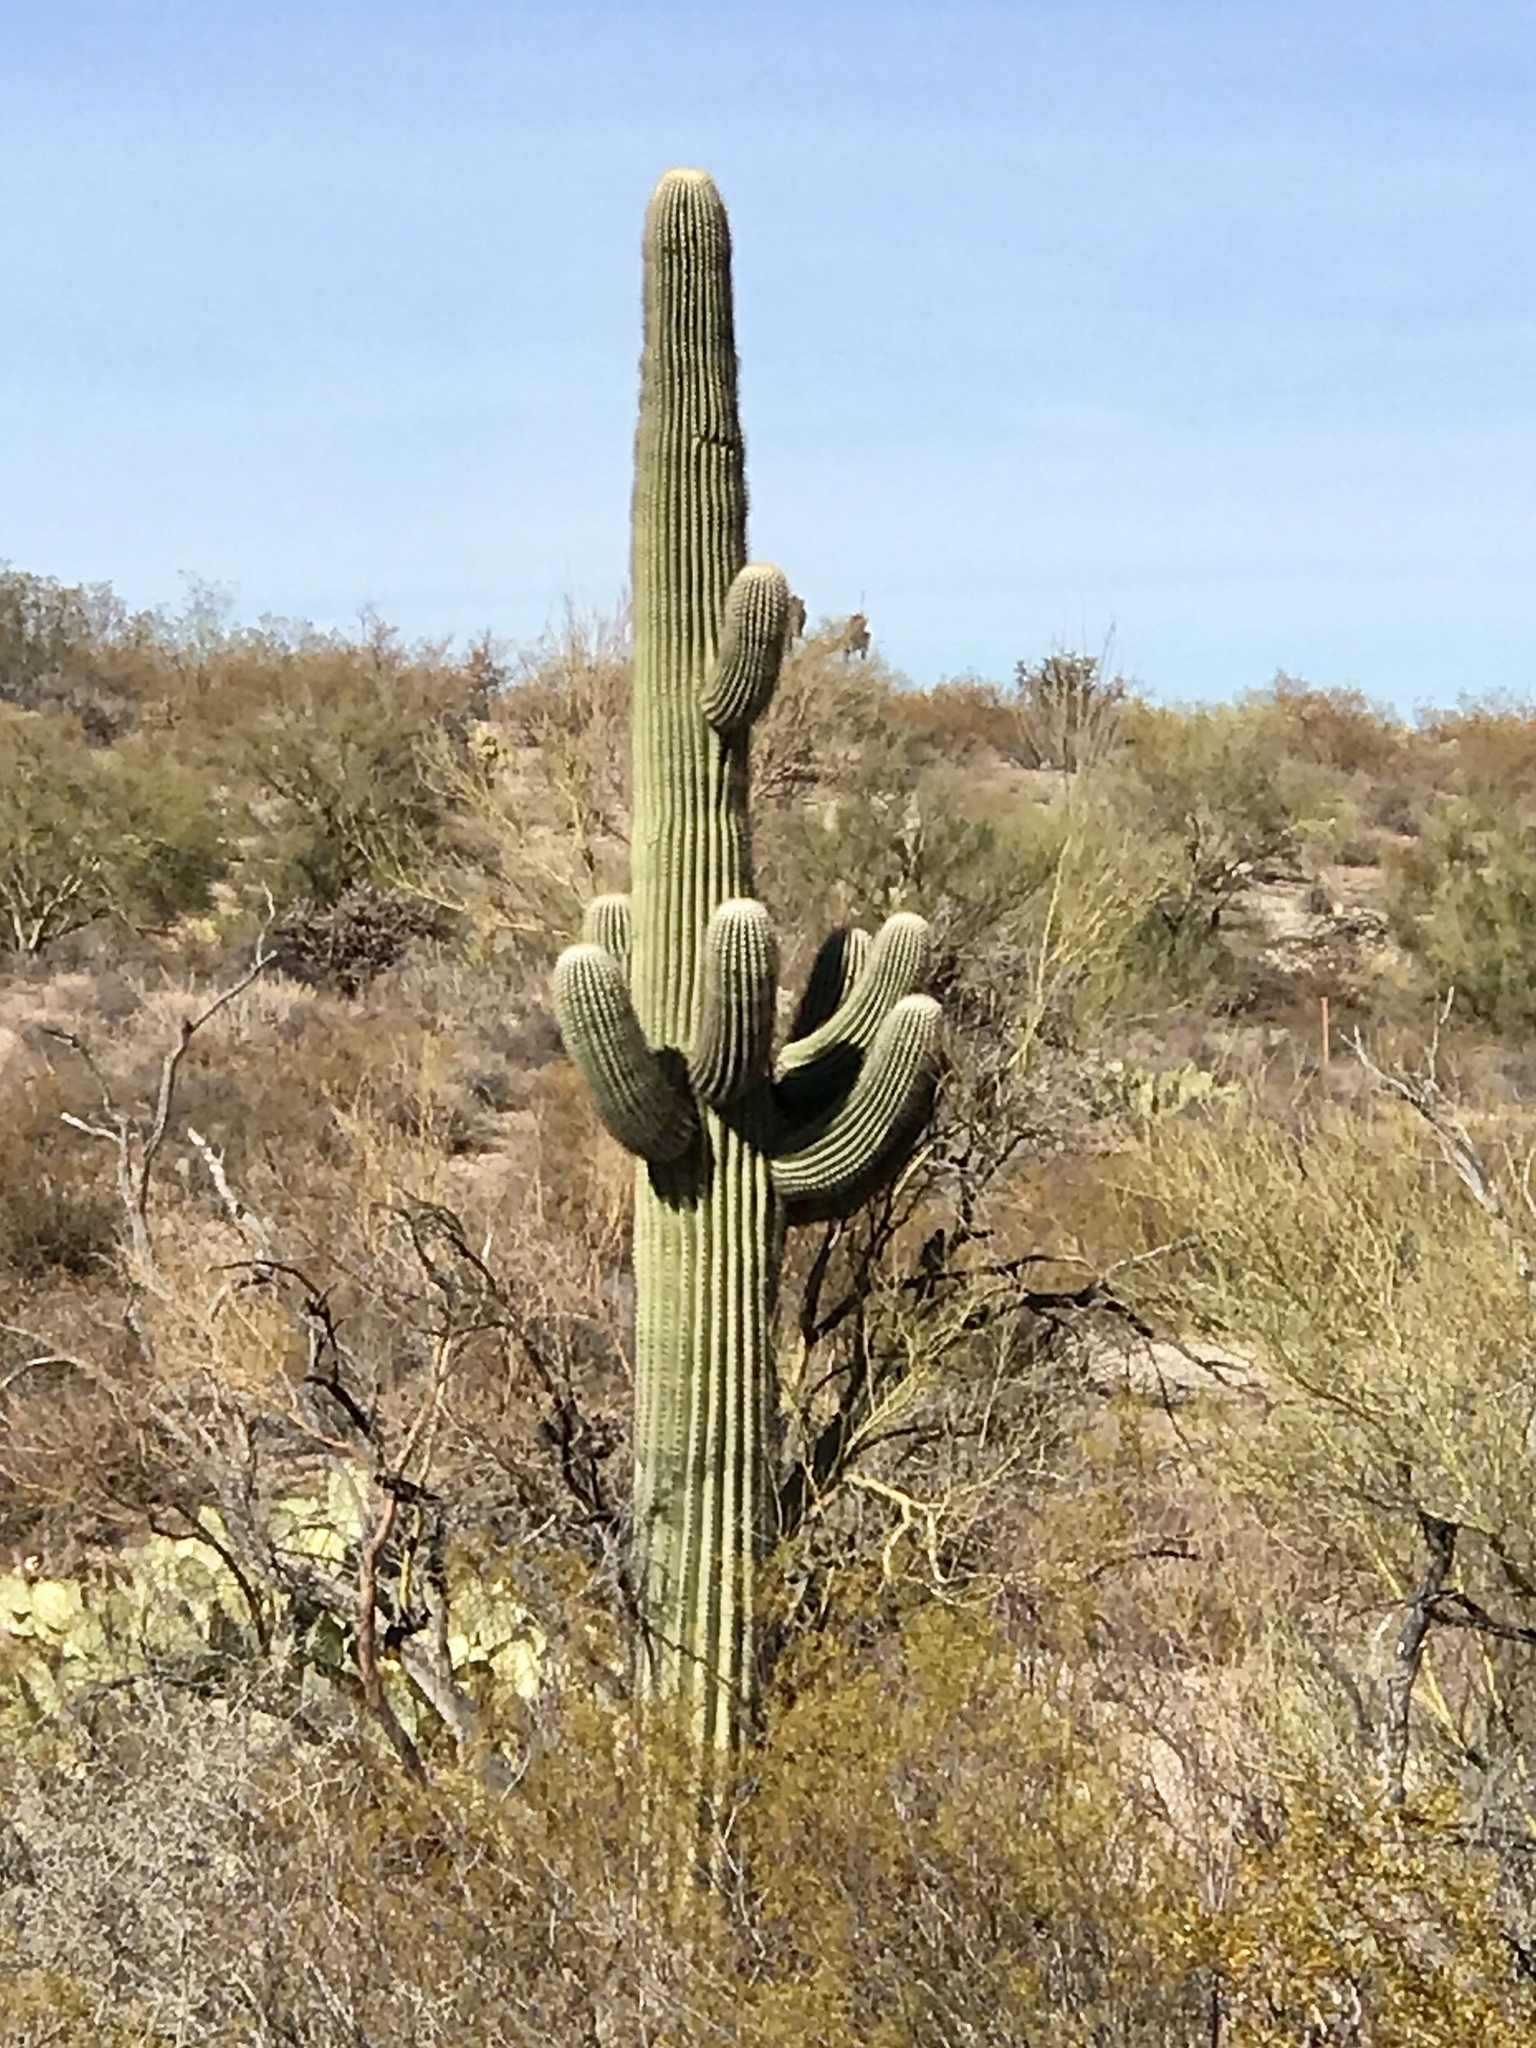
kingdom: Plantae
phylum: Tracheophyta
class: Magnoliopsida
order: Caryophyllales
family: Cactaceae
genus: Carnegiea
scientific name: Carnegiea gigantea
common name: Saguaro
